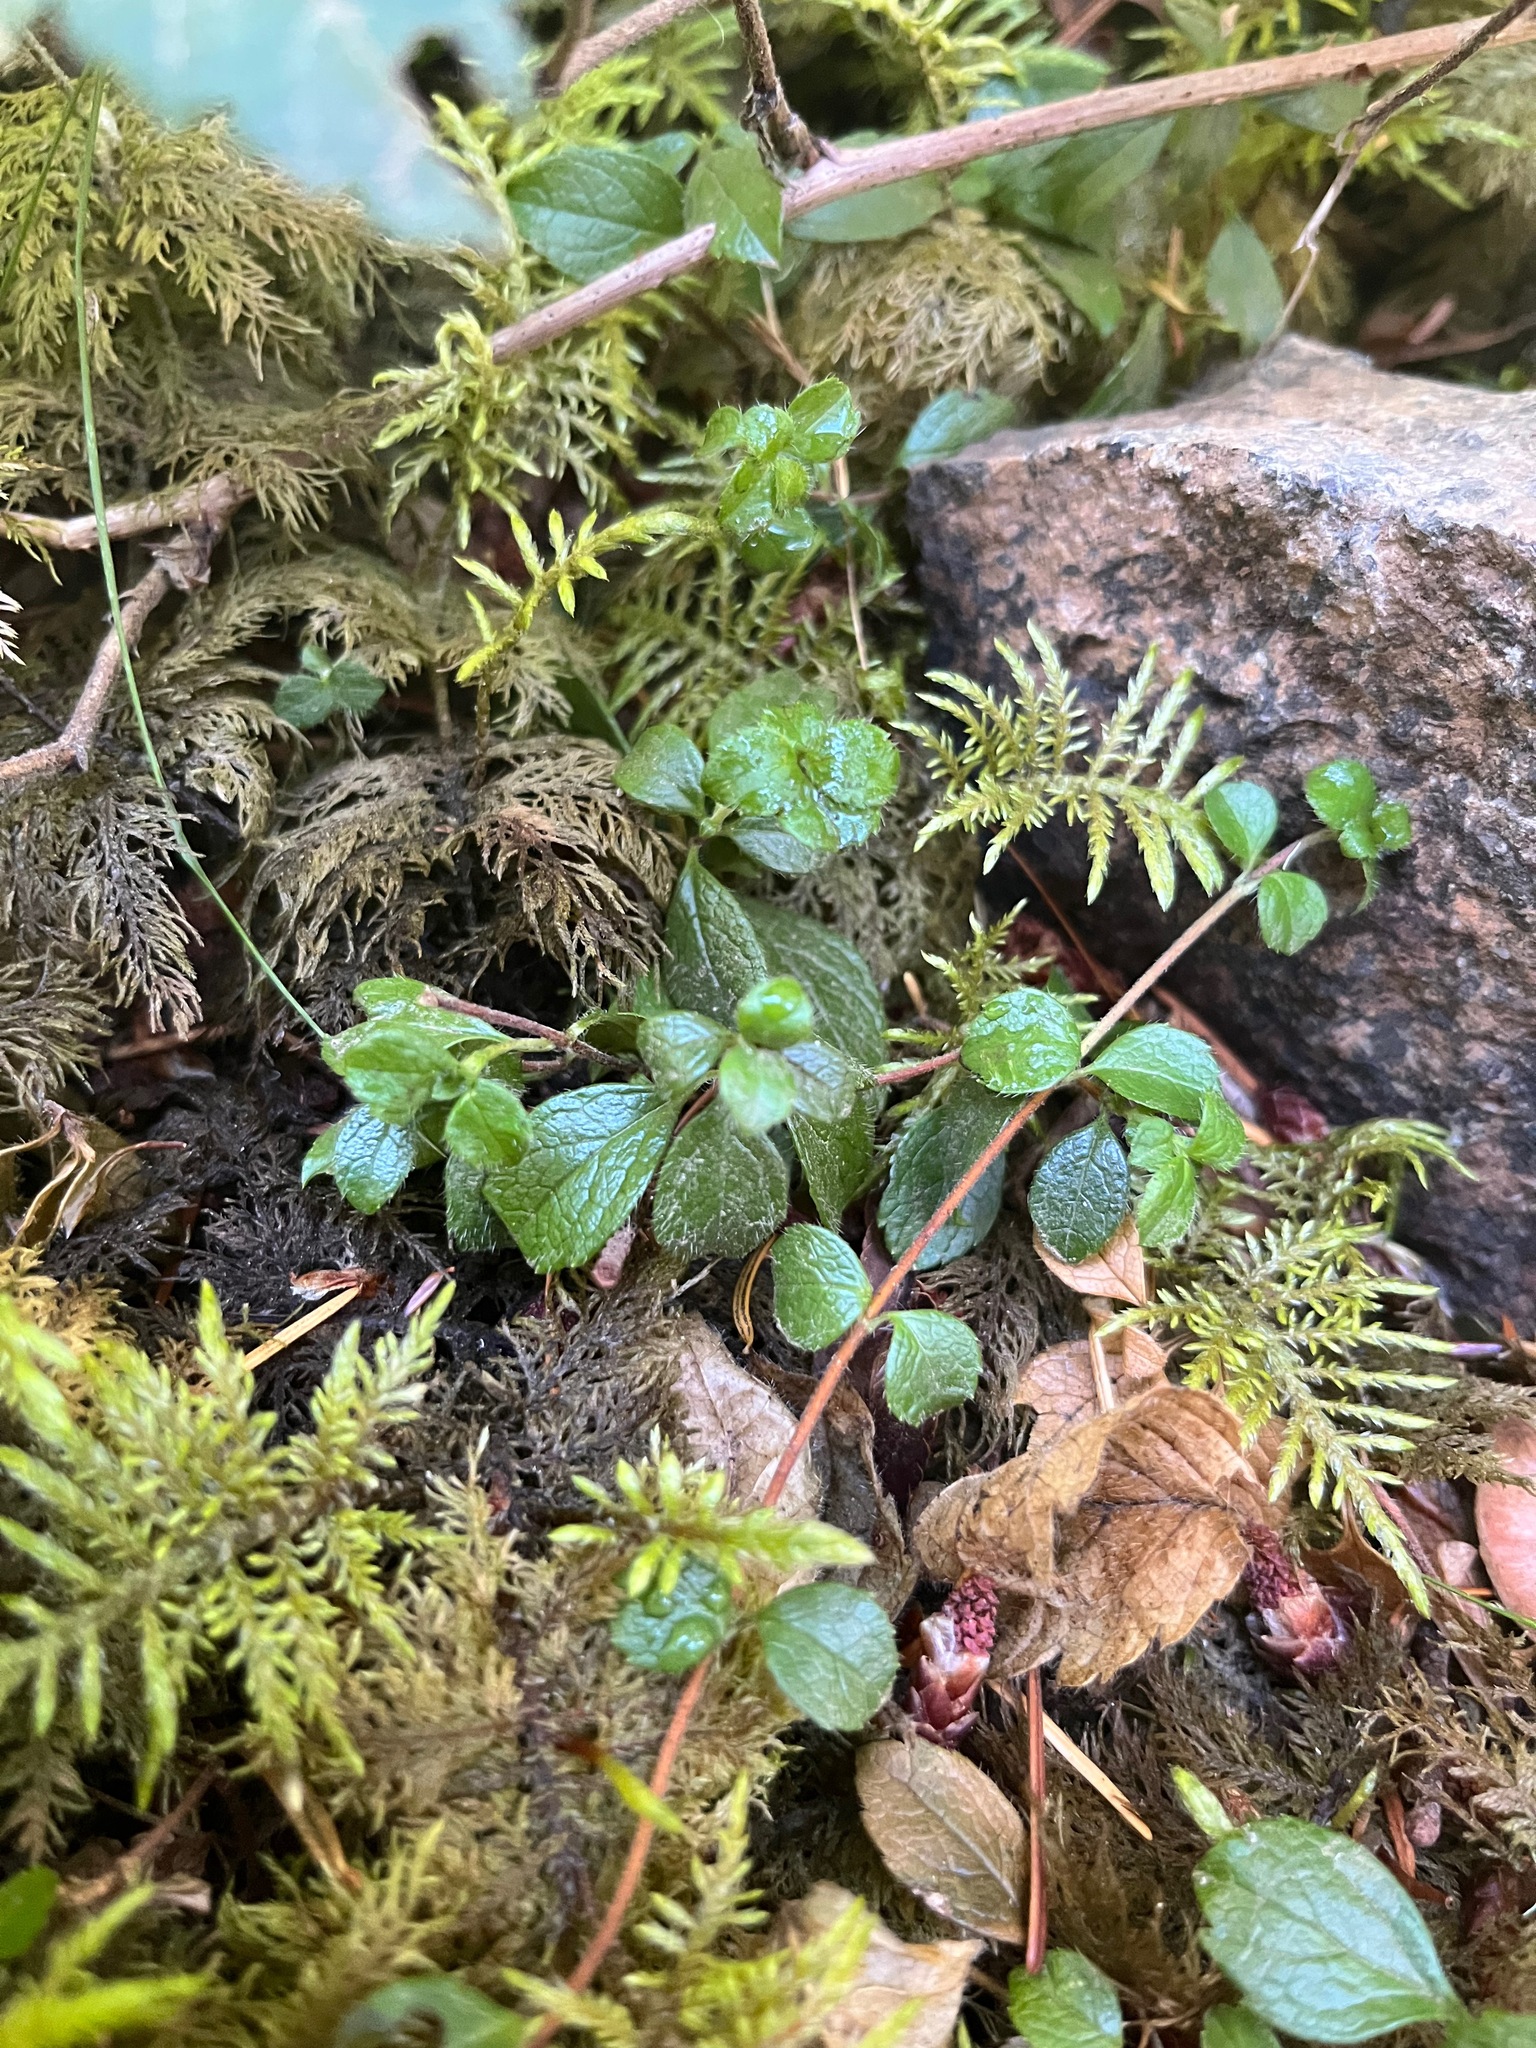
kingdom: Plantae
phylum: Tracheophyta
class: Magnoliopsida
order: Dipsacales
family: Caprifoliaceae
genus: Linnaea
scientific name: Linnaea borealis
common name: Twinflower
